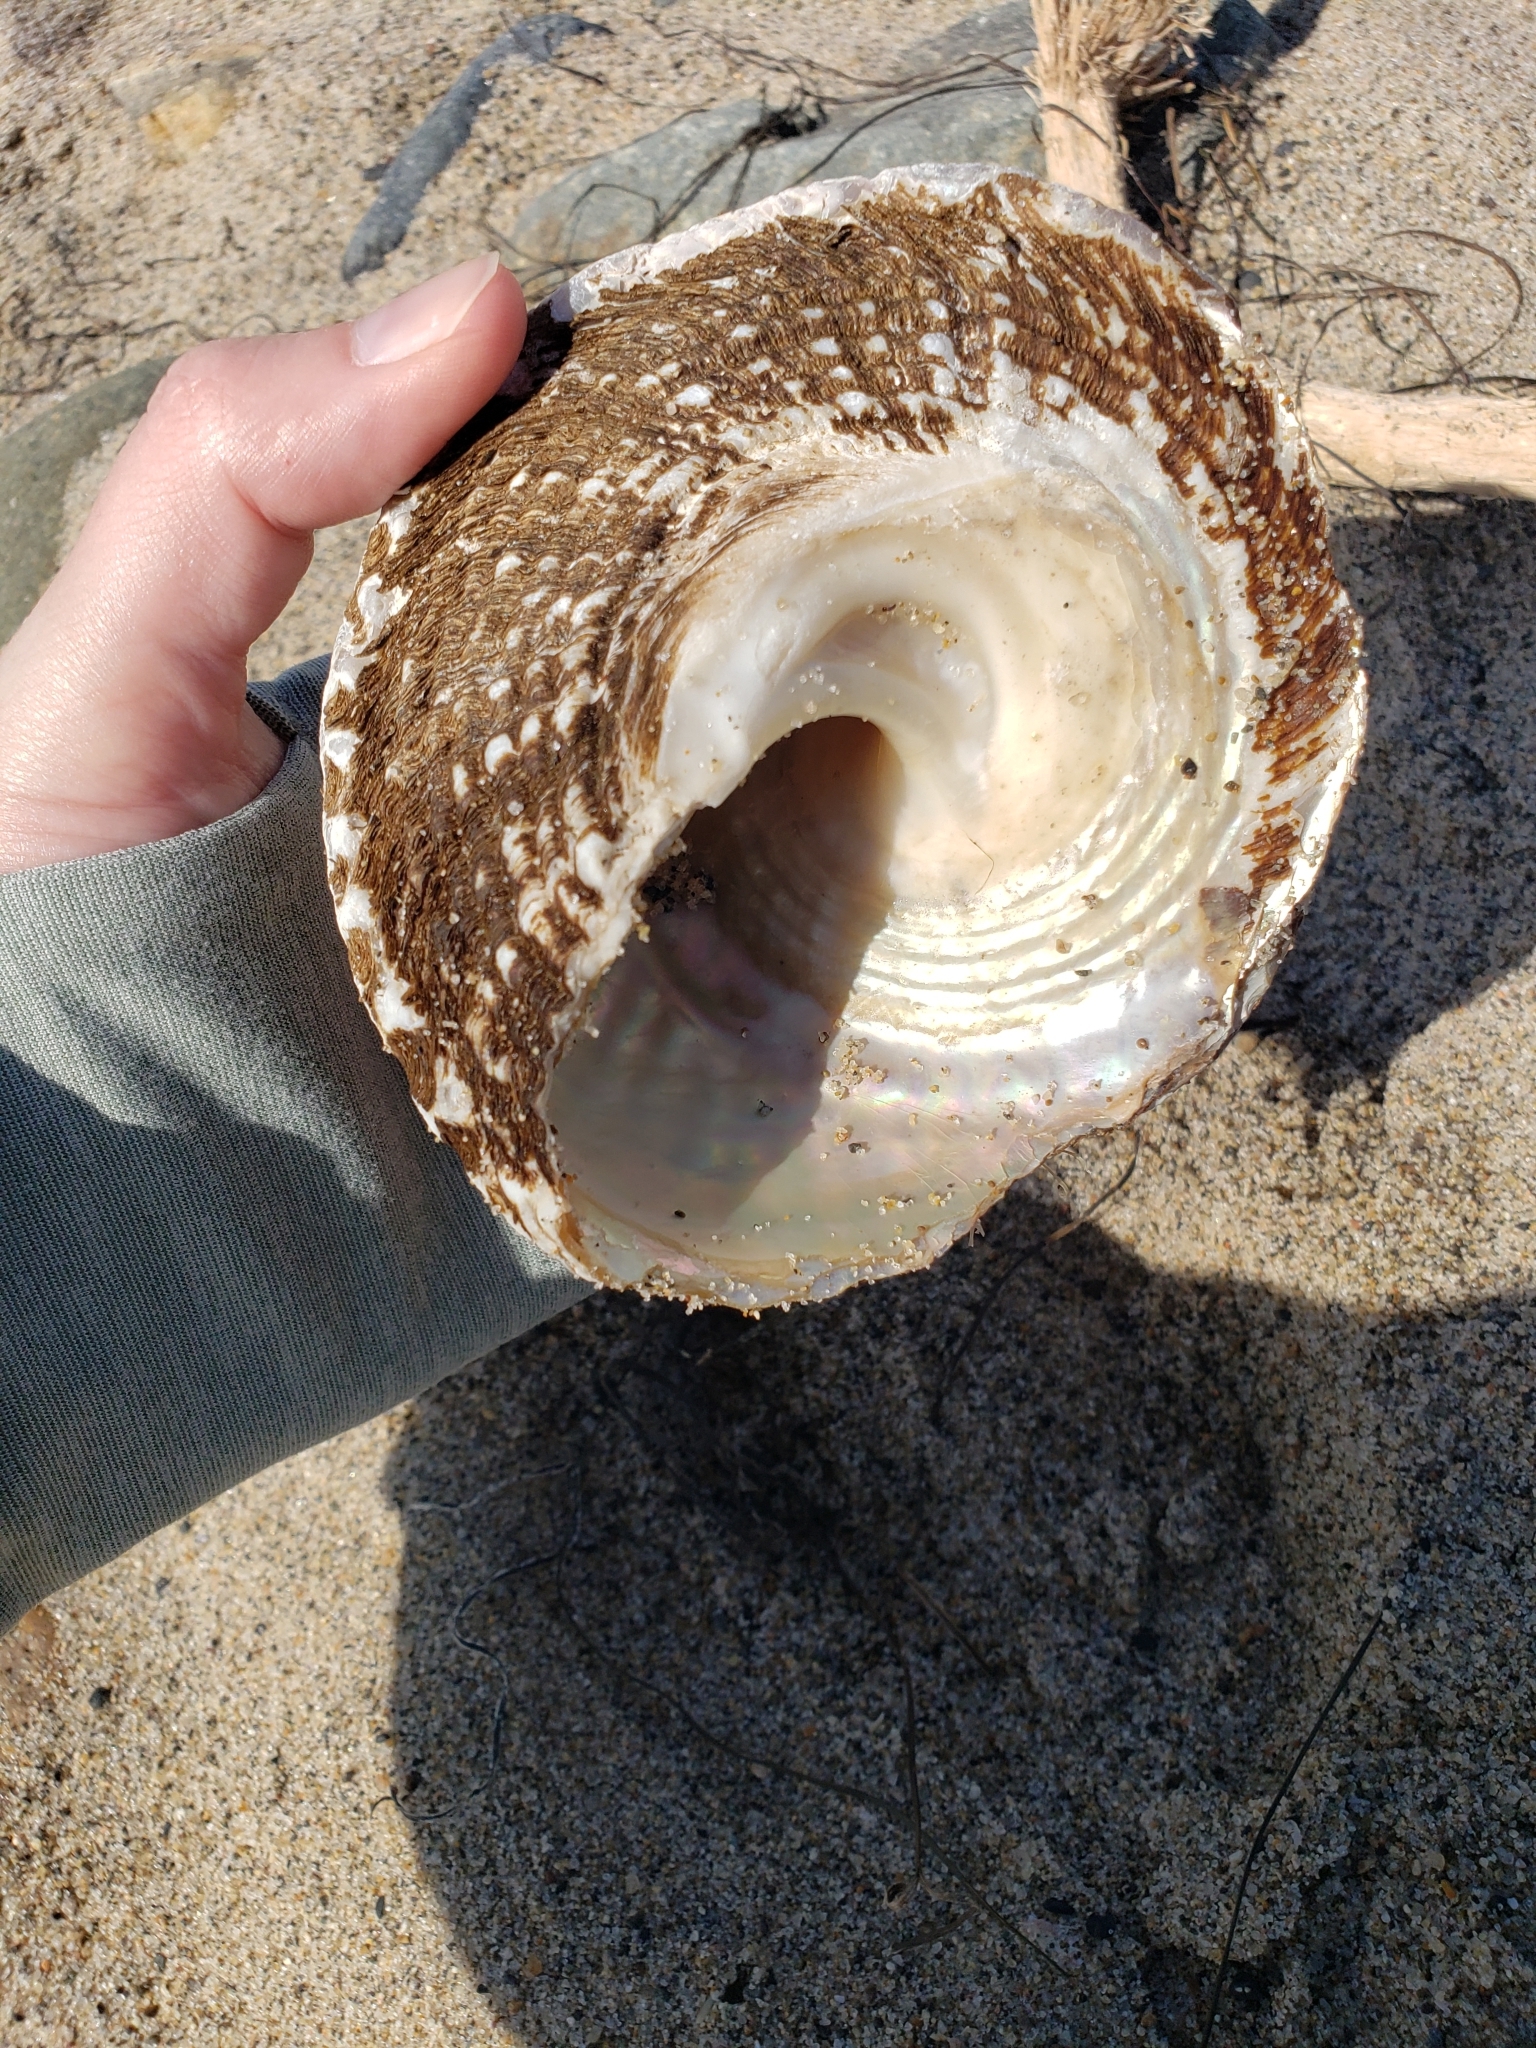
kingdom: Animalia
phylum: Mollusca
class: Gastropoda
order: Trochida
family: Turbinidae
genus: Megastraea
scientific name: Megastraea undosa
